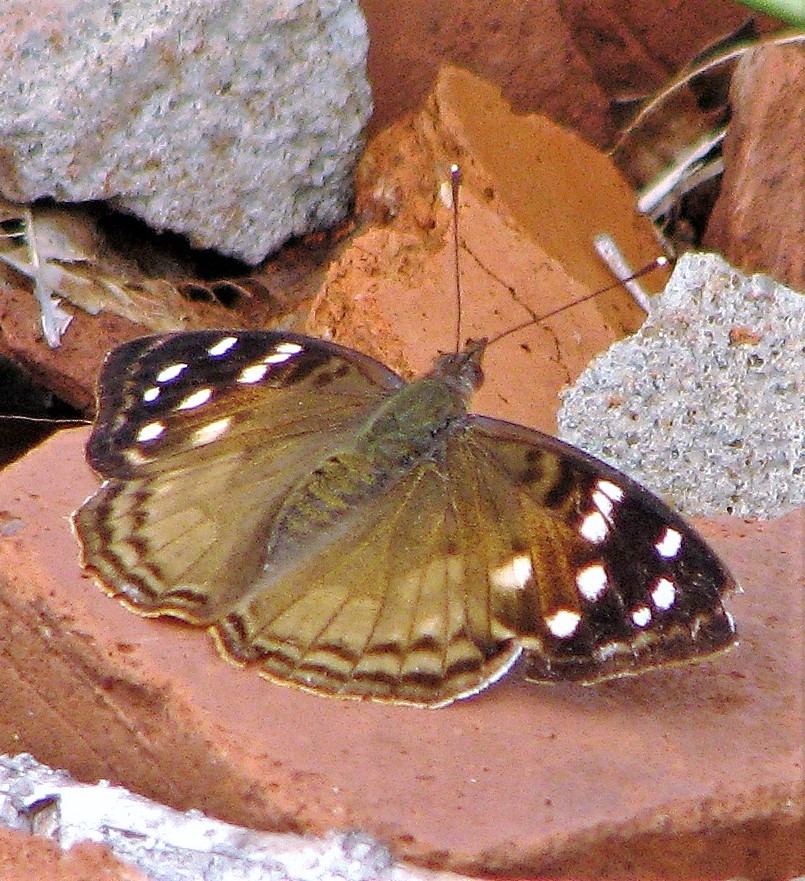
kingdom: Animalia
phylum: Arthropoda
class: Insecta
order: Lepidoptera
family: Nymphalidae
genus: Doxocopa
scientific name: Doxocopa kallina
